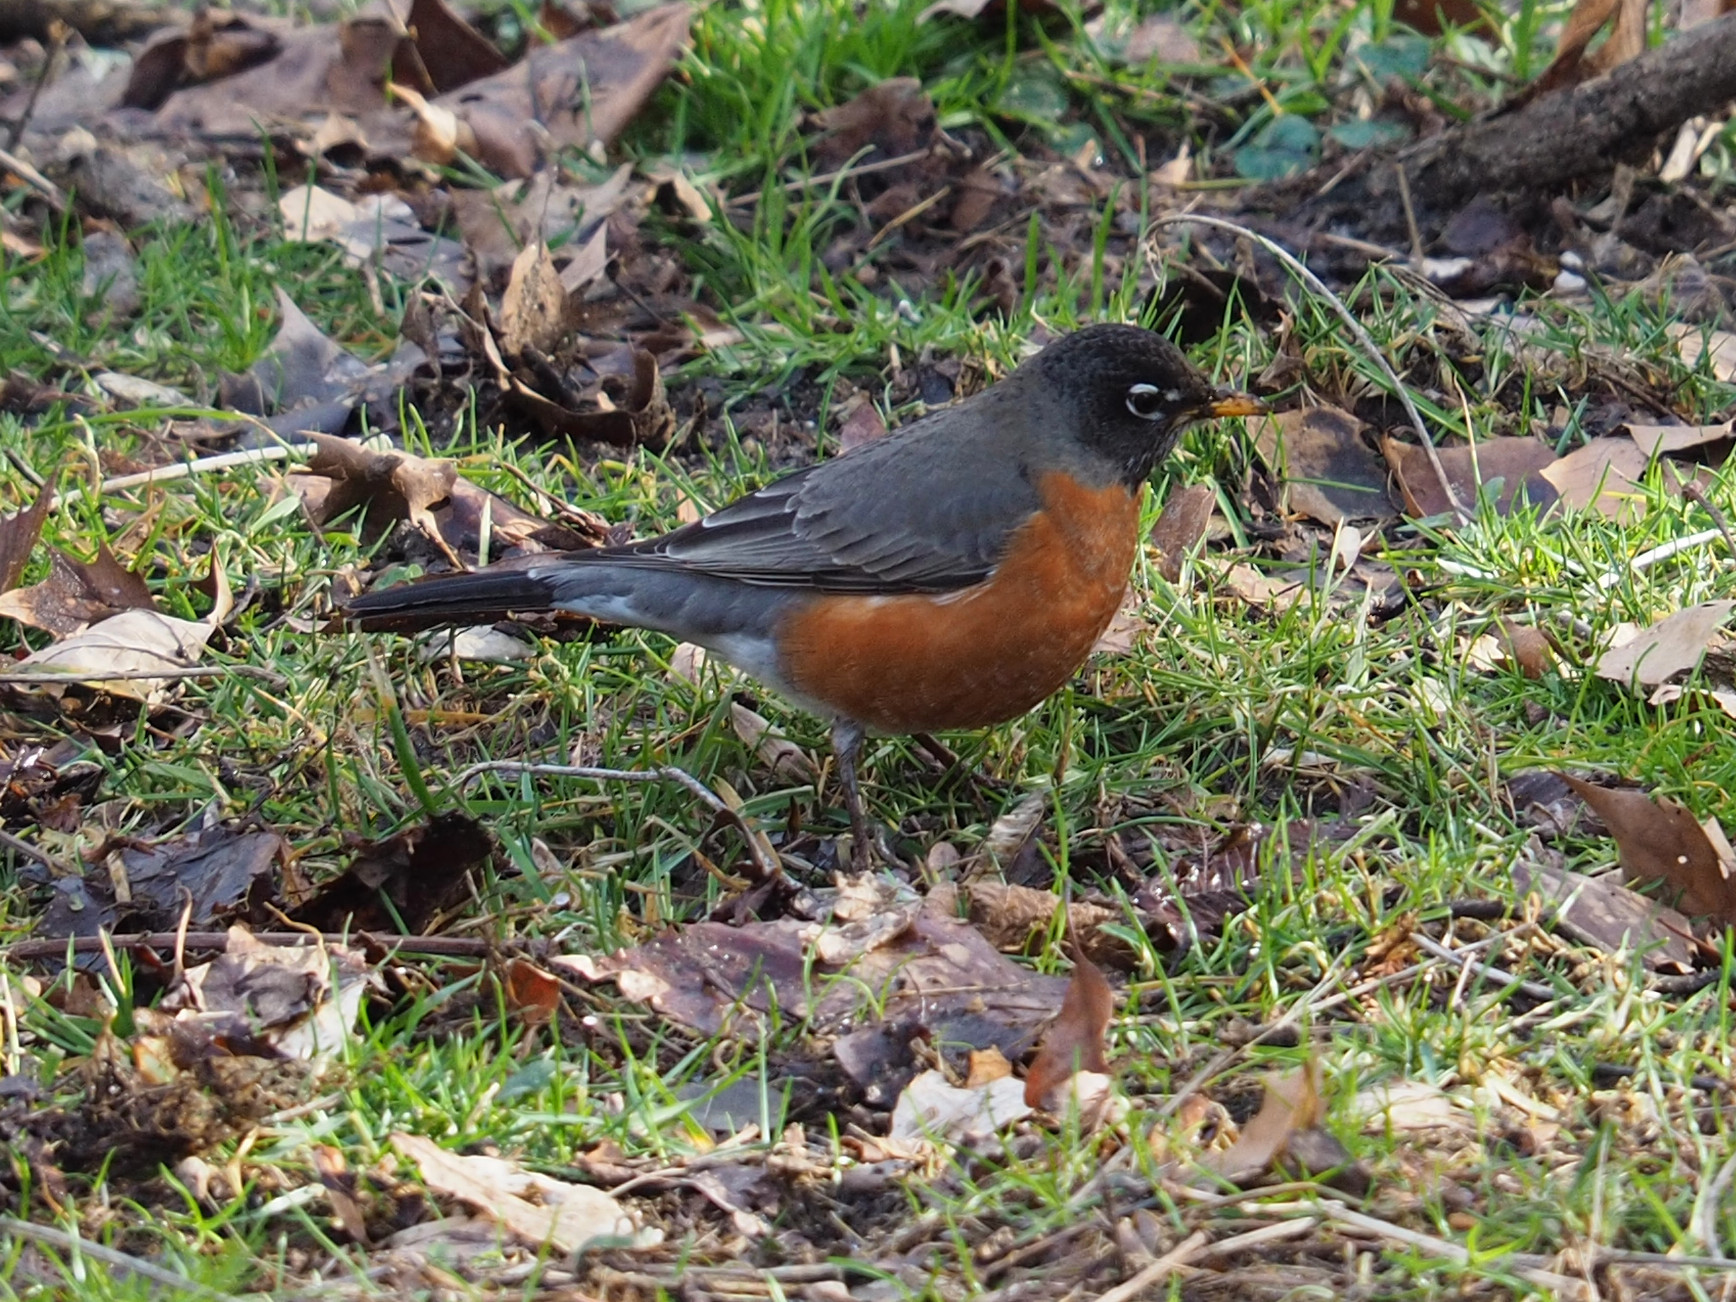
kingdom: Animalia
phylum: Chordata
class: Aves
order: Passeriformes
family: Turdidae
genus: Turdus
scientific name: Turdus migratorius
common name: American robin
